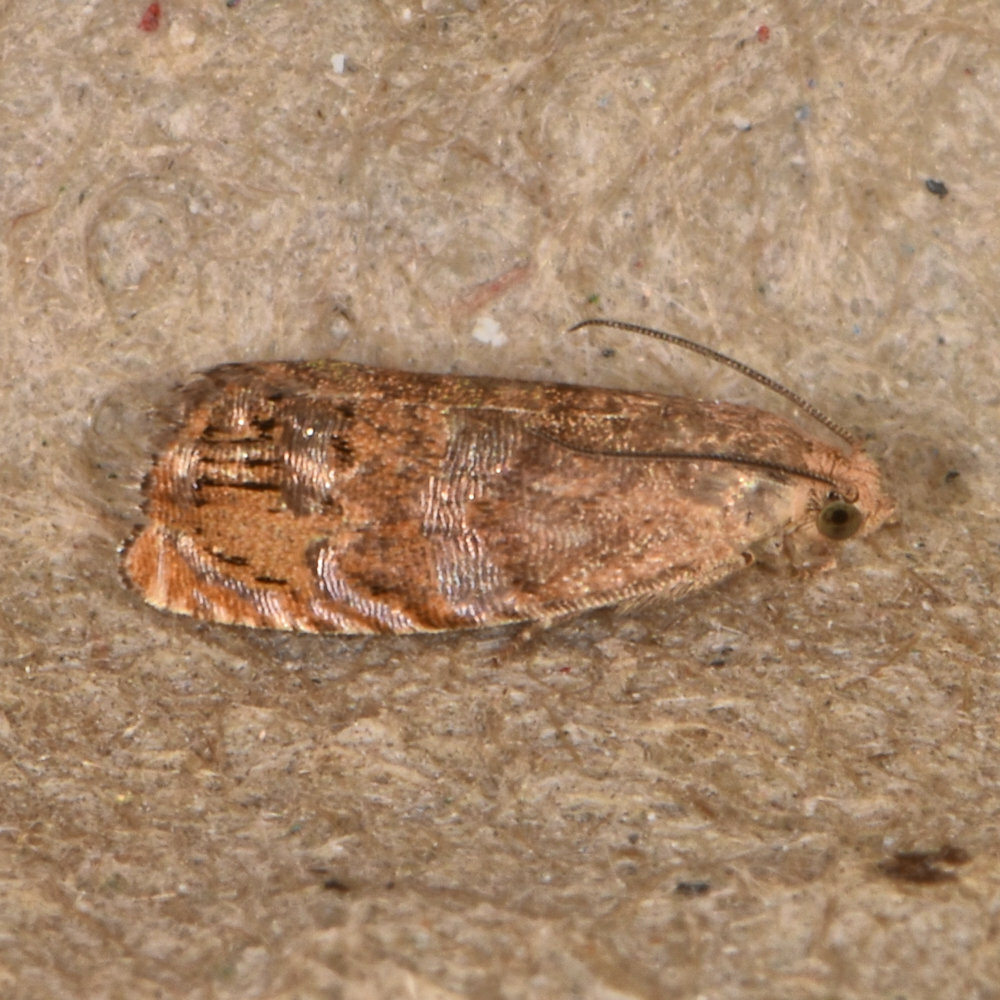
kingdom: Animalia
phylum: Arthropoda
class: Insecta
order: Lepidoptera
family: Tortricidae
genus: Cydia
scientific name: Cydia latiferreana
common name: Filbertworm moth
